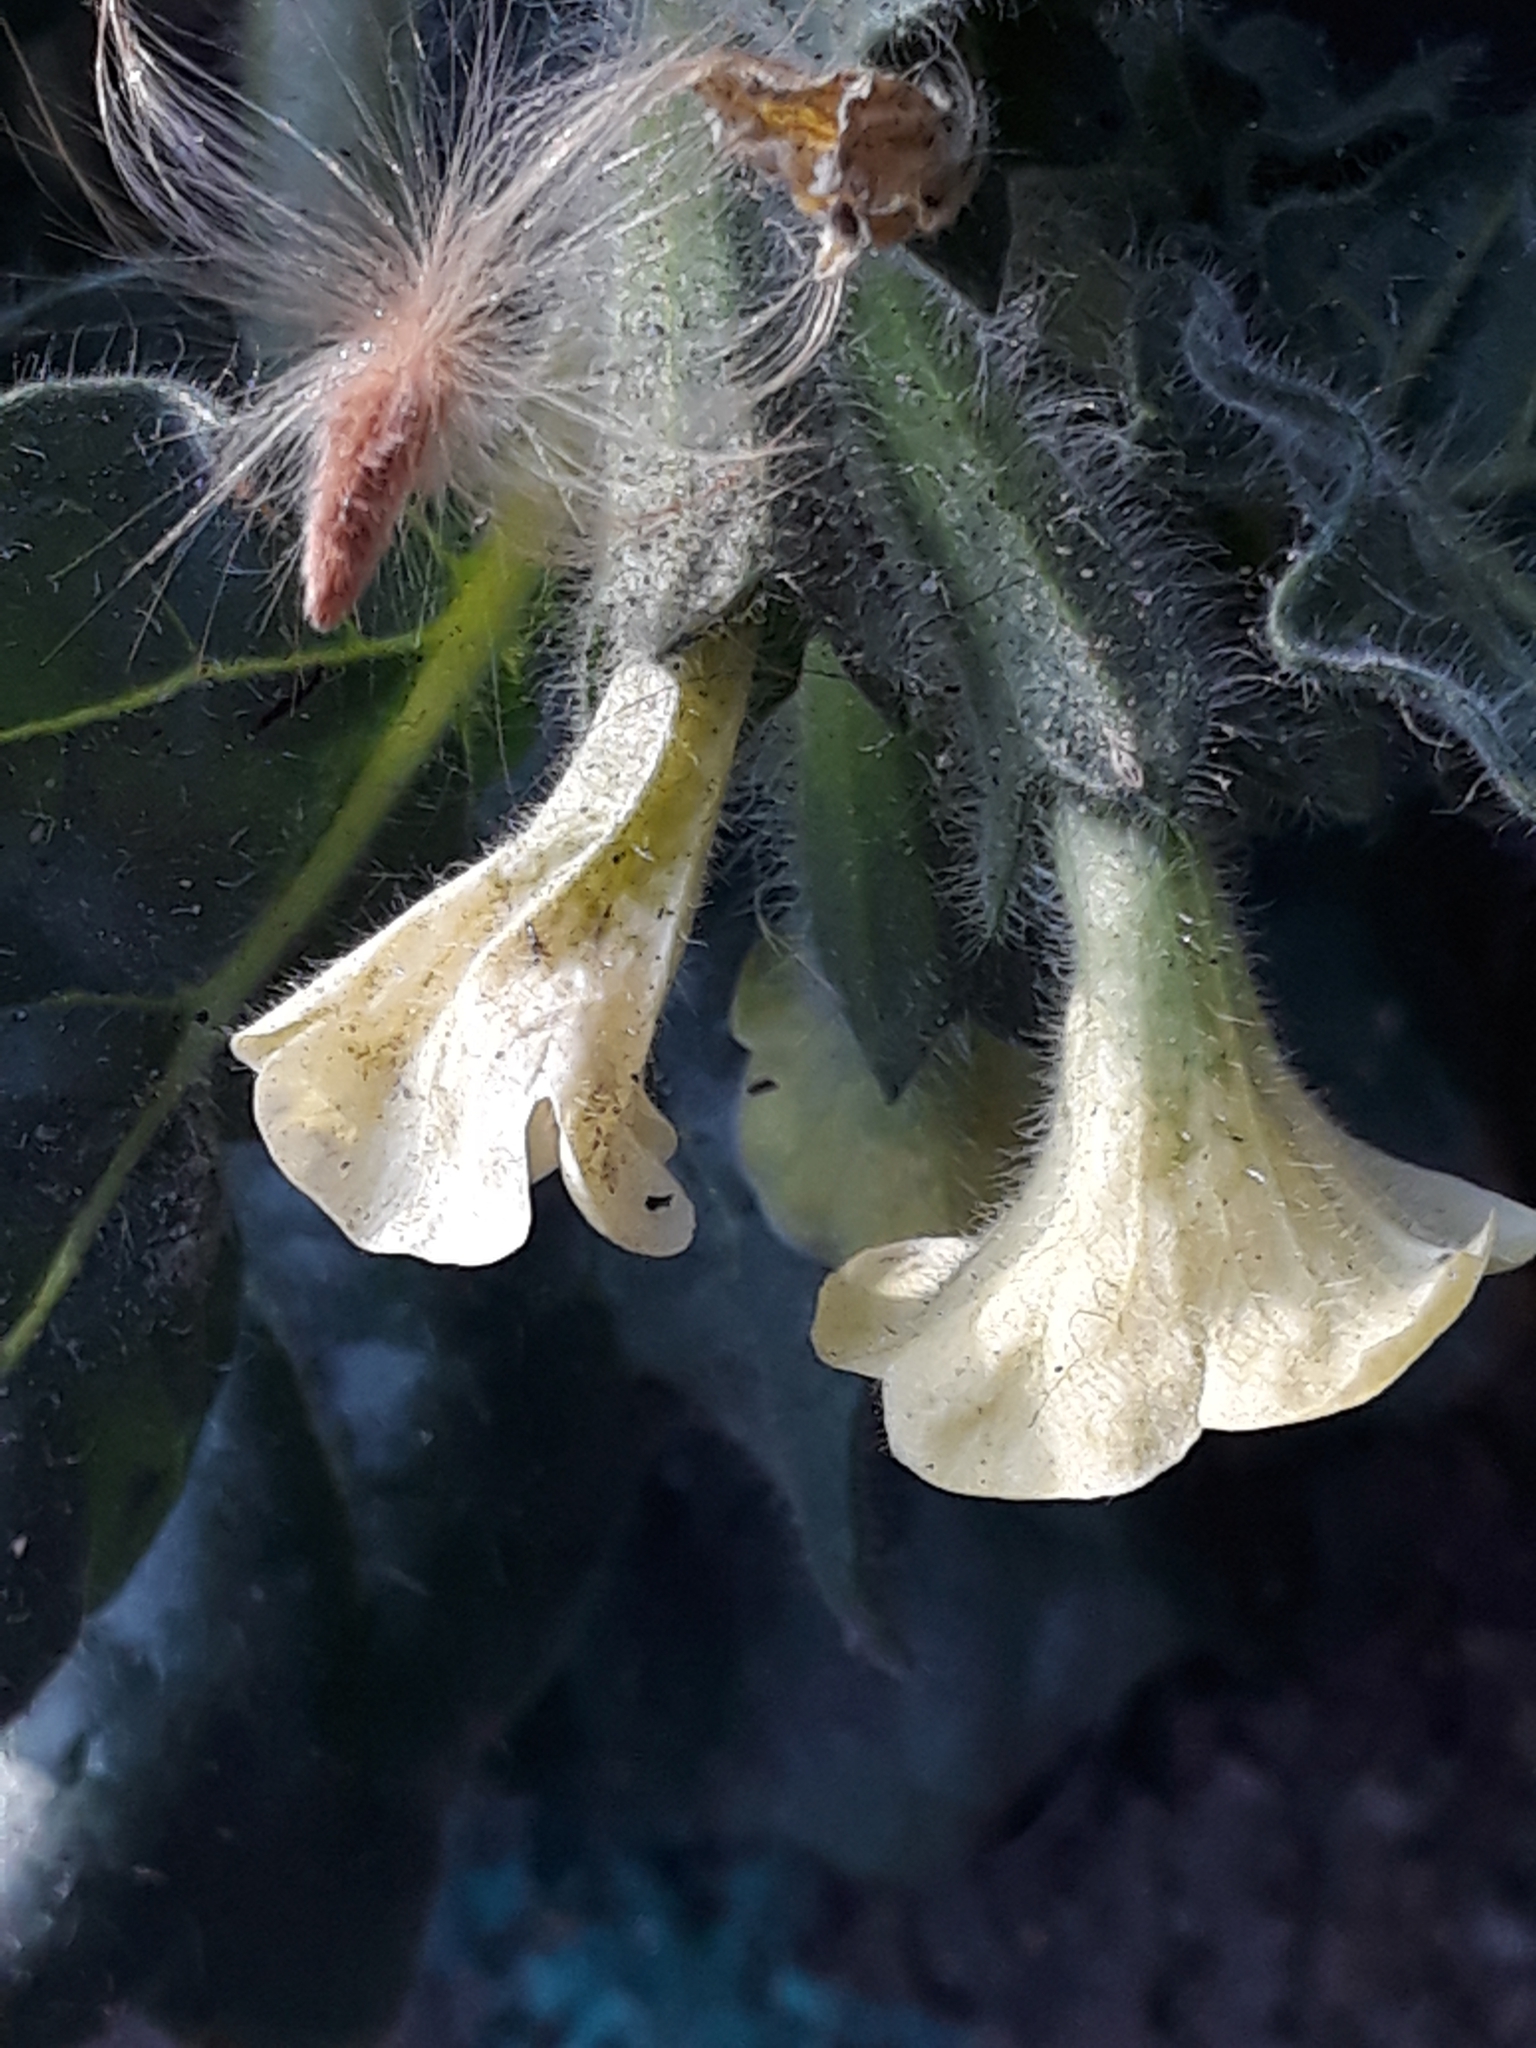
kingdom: Plantae
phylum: Tracheophyta
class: Magnoliopsida
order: Solanales
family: Solanaceae
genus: Hyoscyamus
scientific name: Hyoscyamus albus
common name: White henbane
